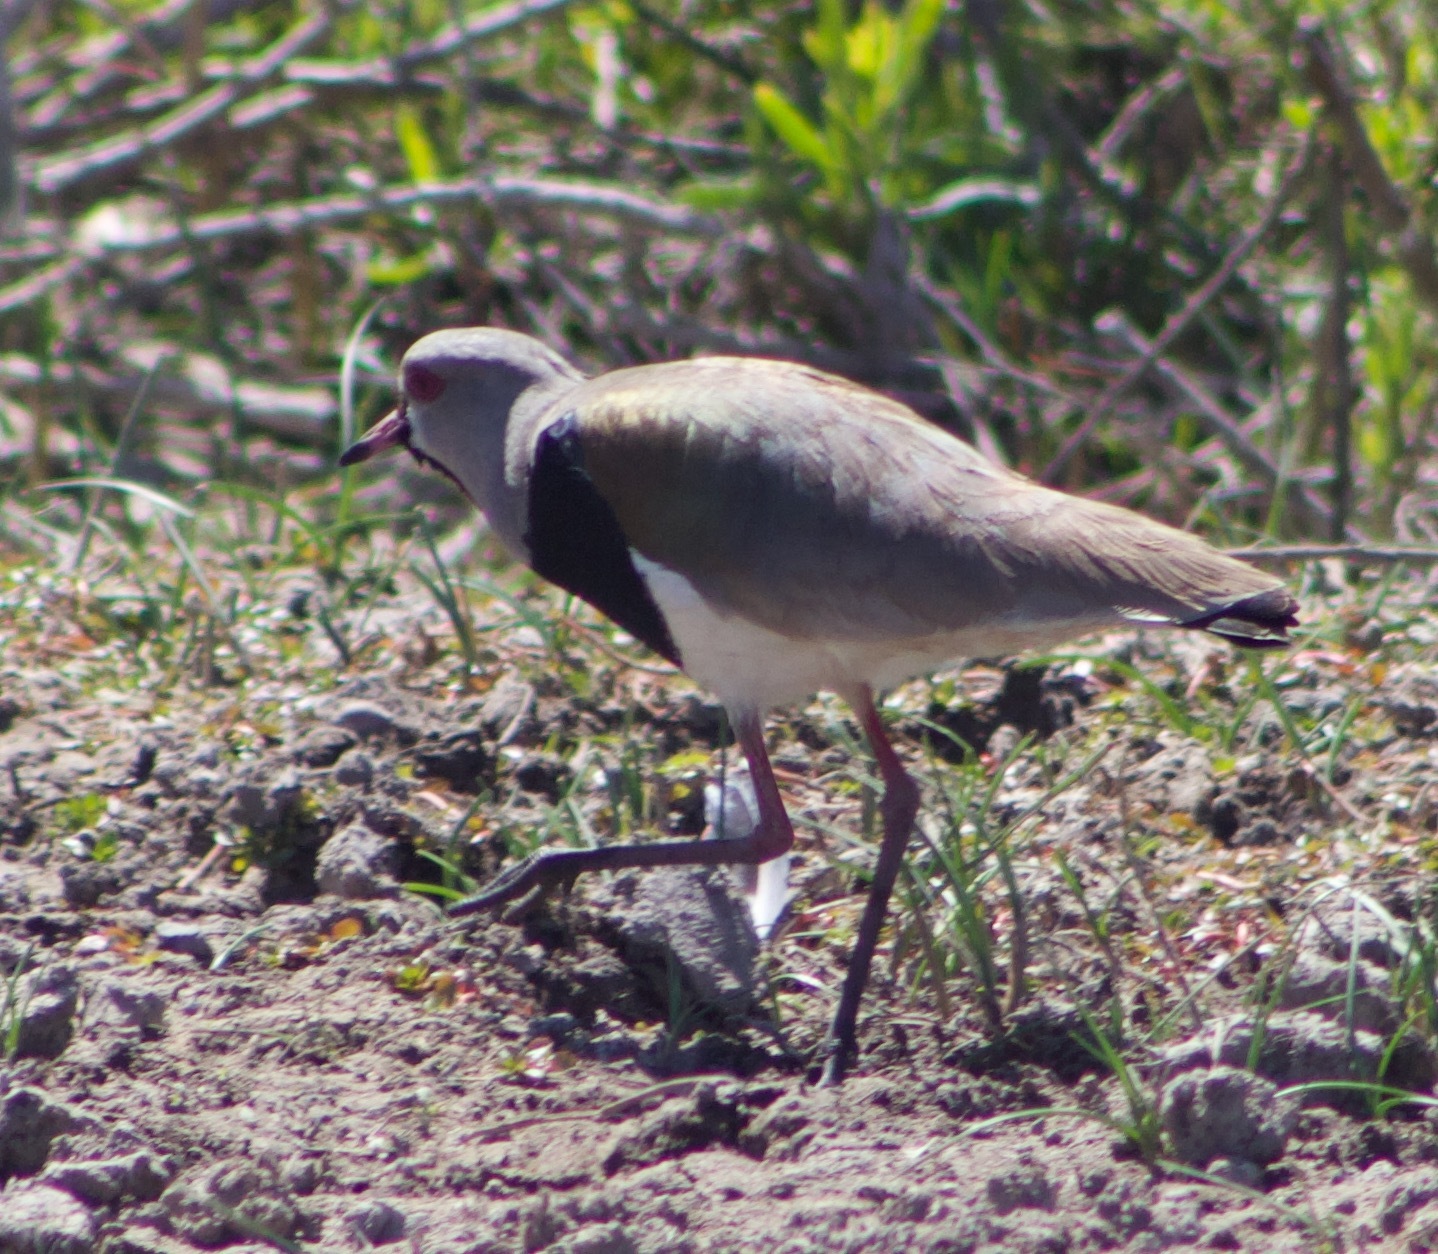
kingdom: Animalia
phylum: Chordata
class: Aves
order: Charadriiformes
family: Charadriidae
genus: Vanellus
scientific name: Vanellus chilensis
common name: Southern lapwing
